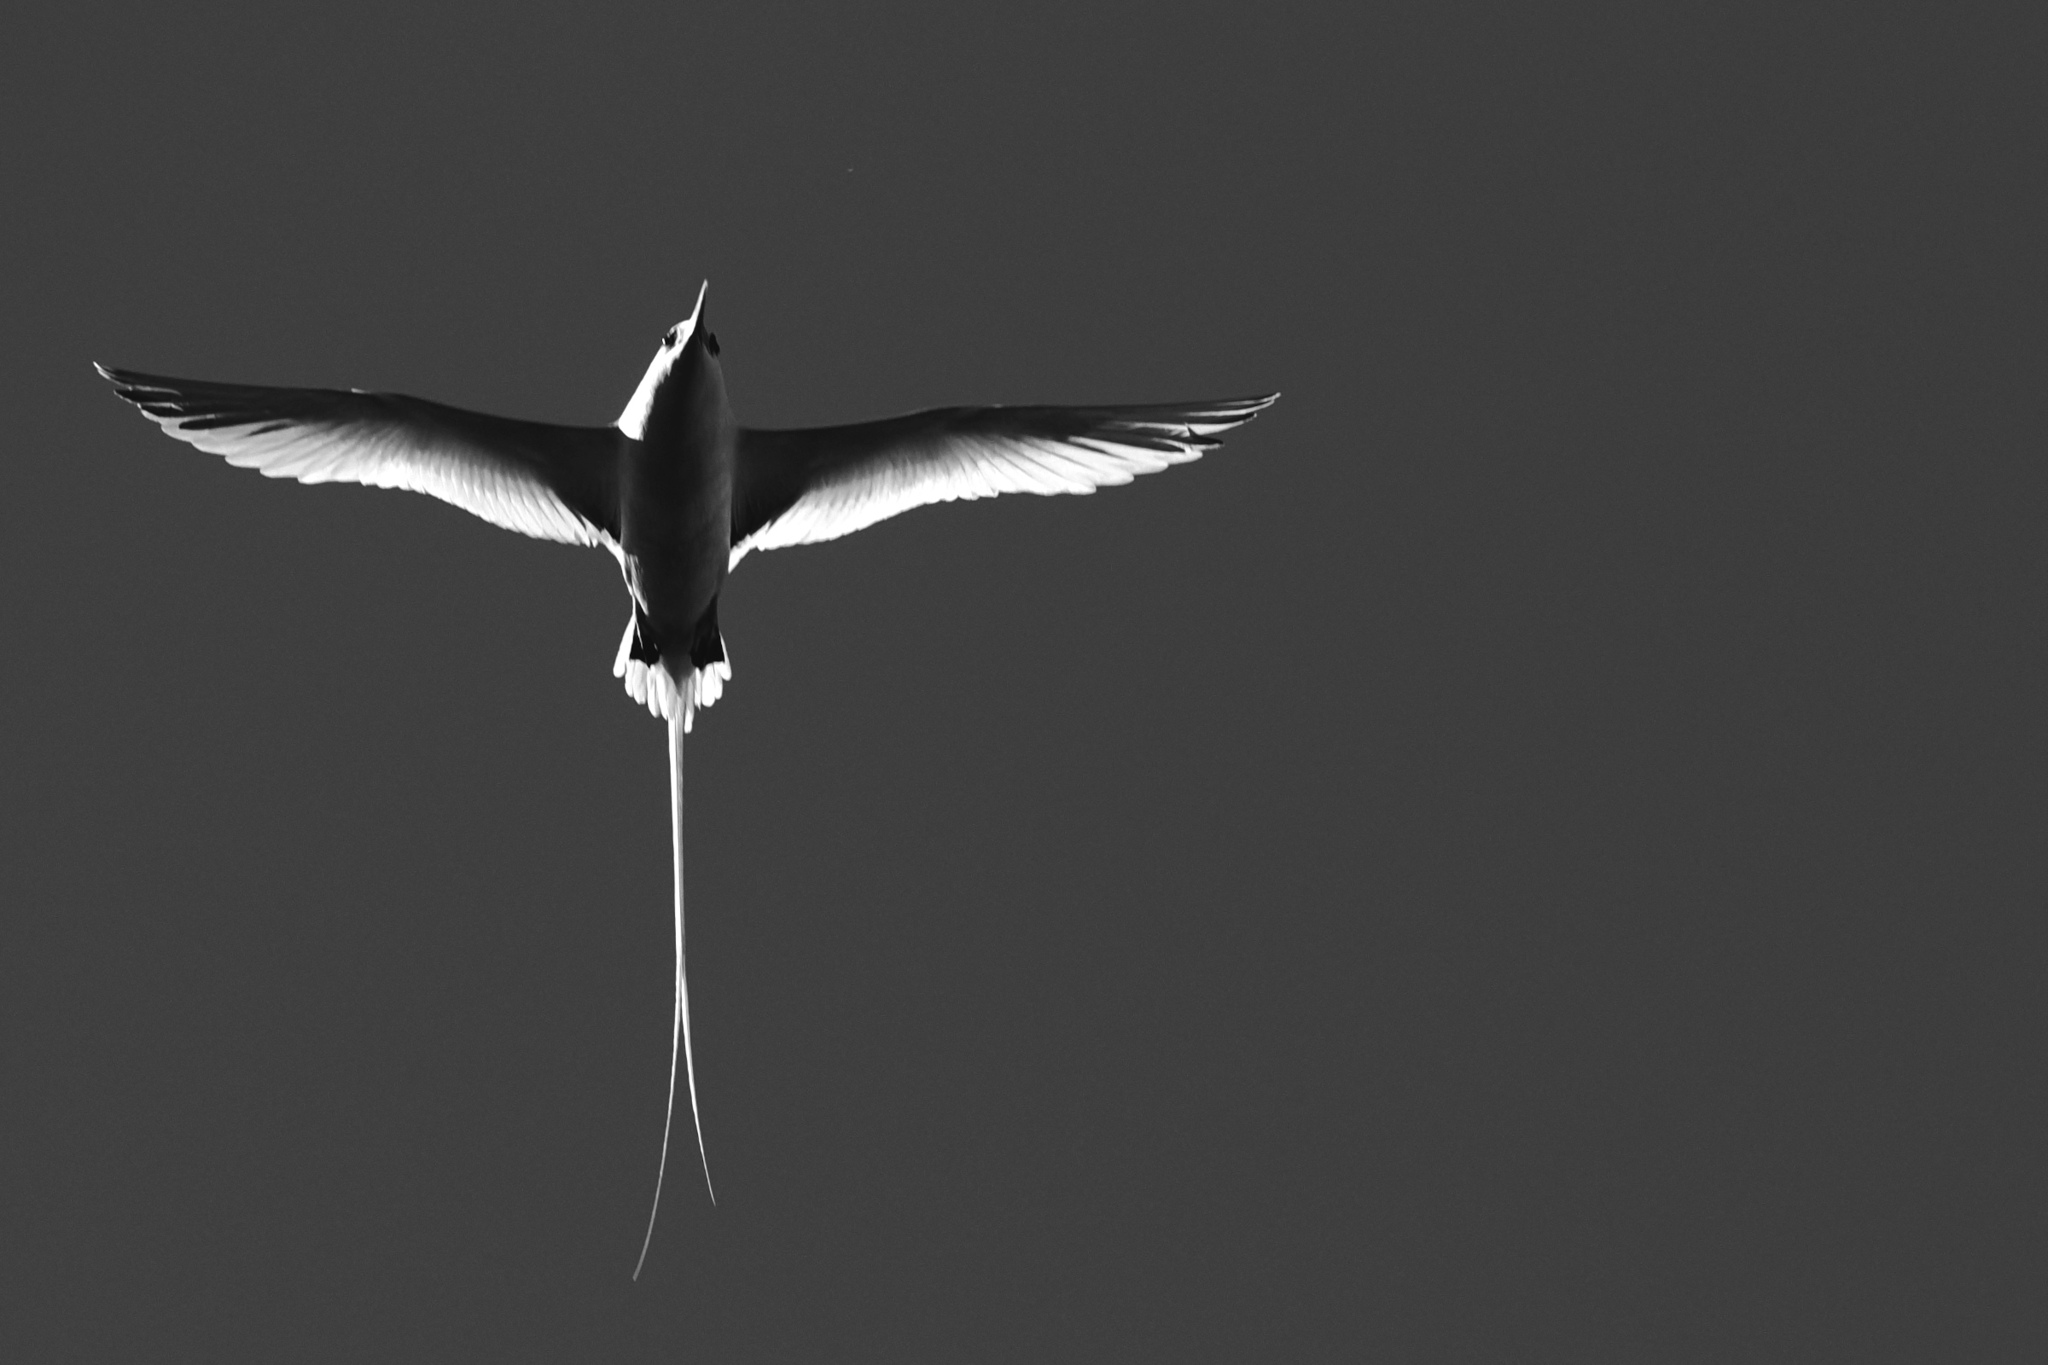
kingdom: Animalia
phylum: Chordata
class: Aves
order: Phaethontiformes
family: Phaethontidae
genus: Phaethon
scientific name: Phaethon aethereus
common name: Red-billed tropicbird
